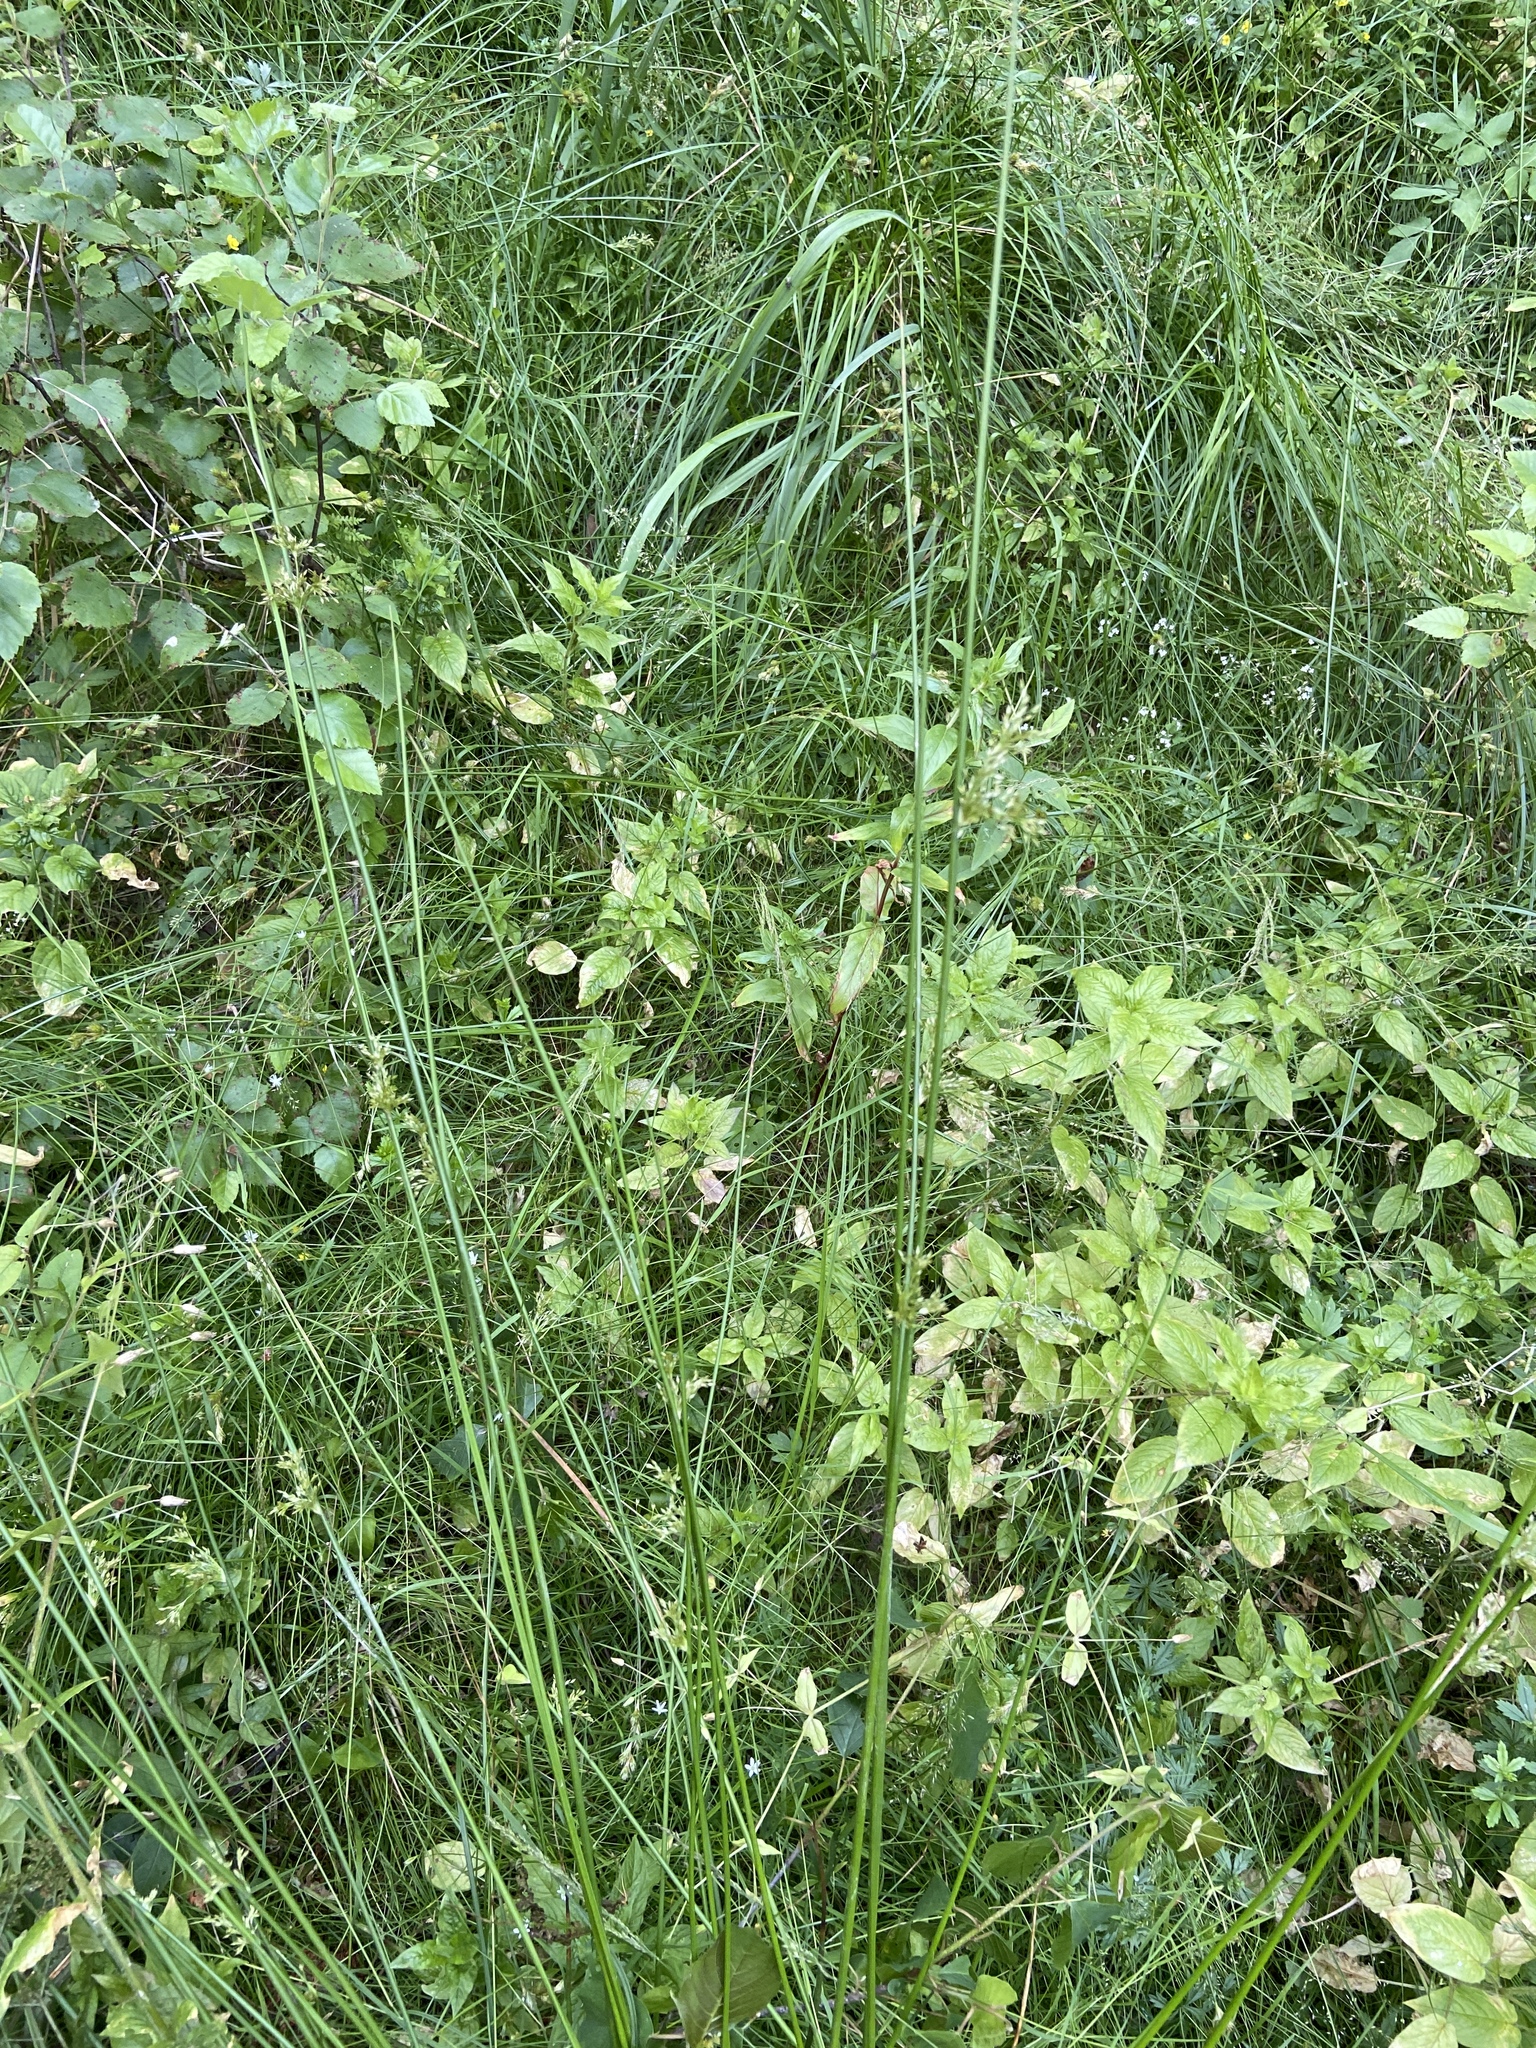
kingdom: Plantae
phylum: Tracheophyta
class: Liliopsida
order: Poales
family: Juncaceae
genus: Juncus
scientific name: Juncus effusus
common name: Soft rush
